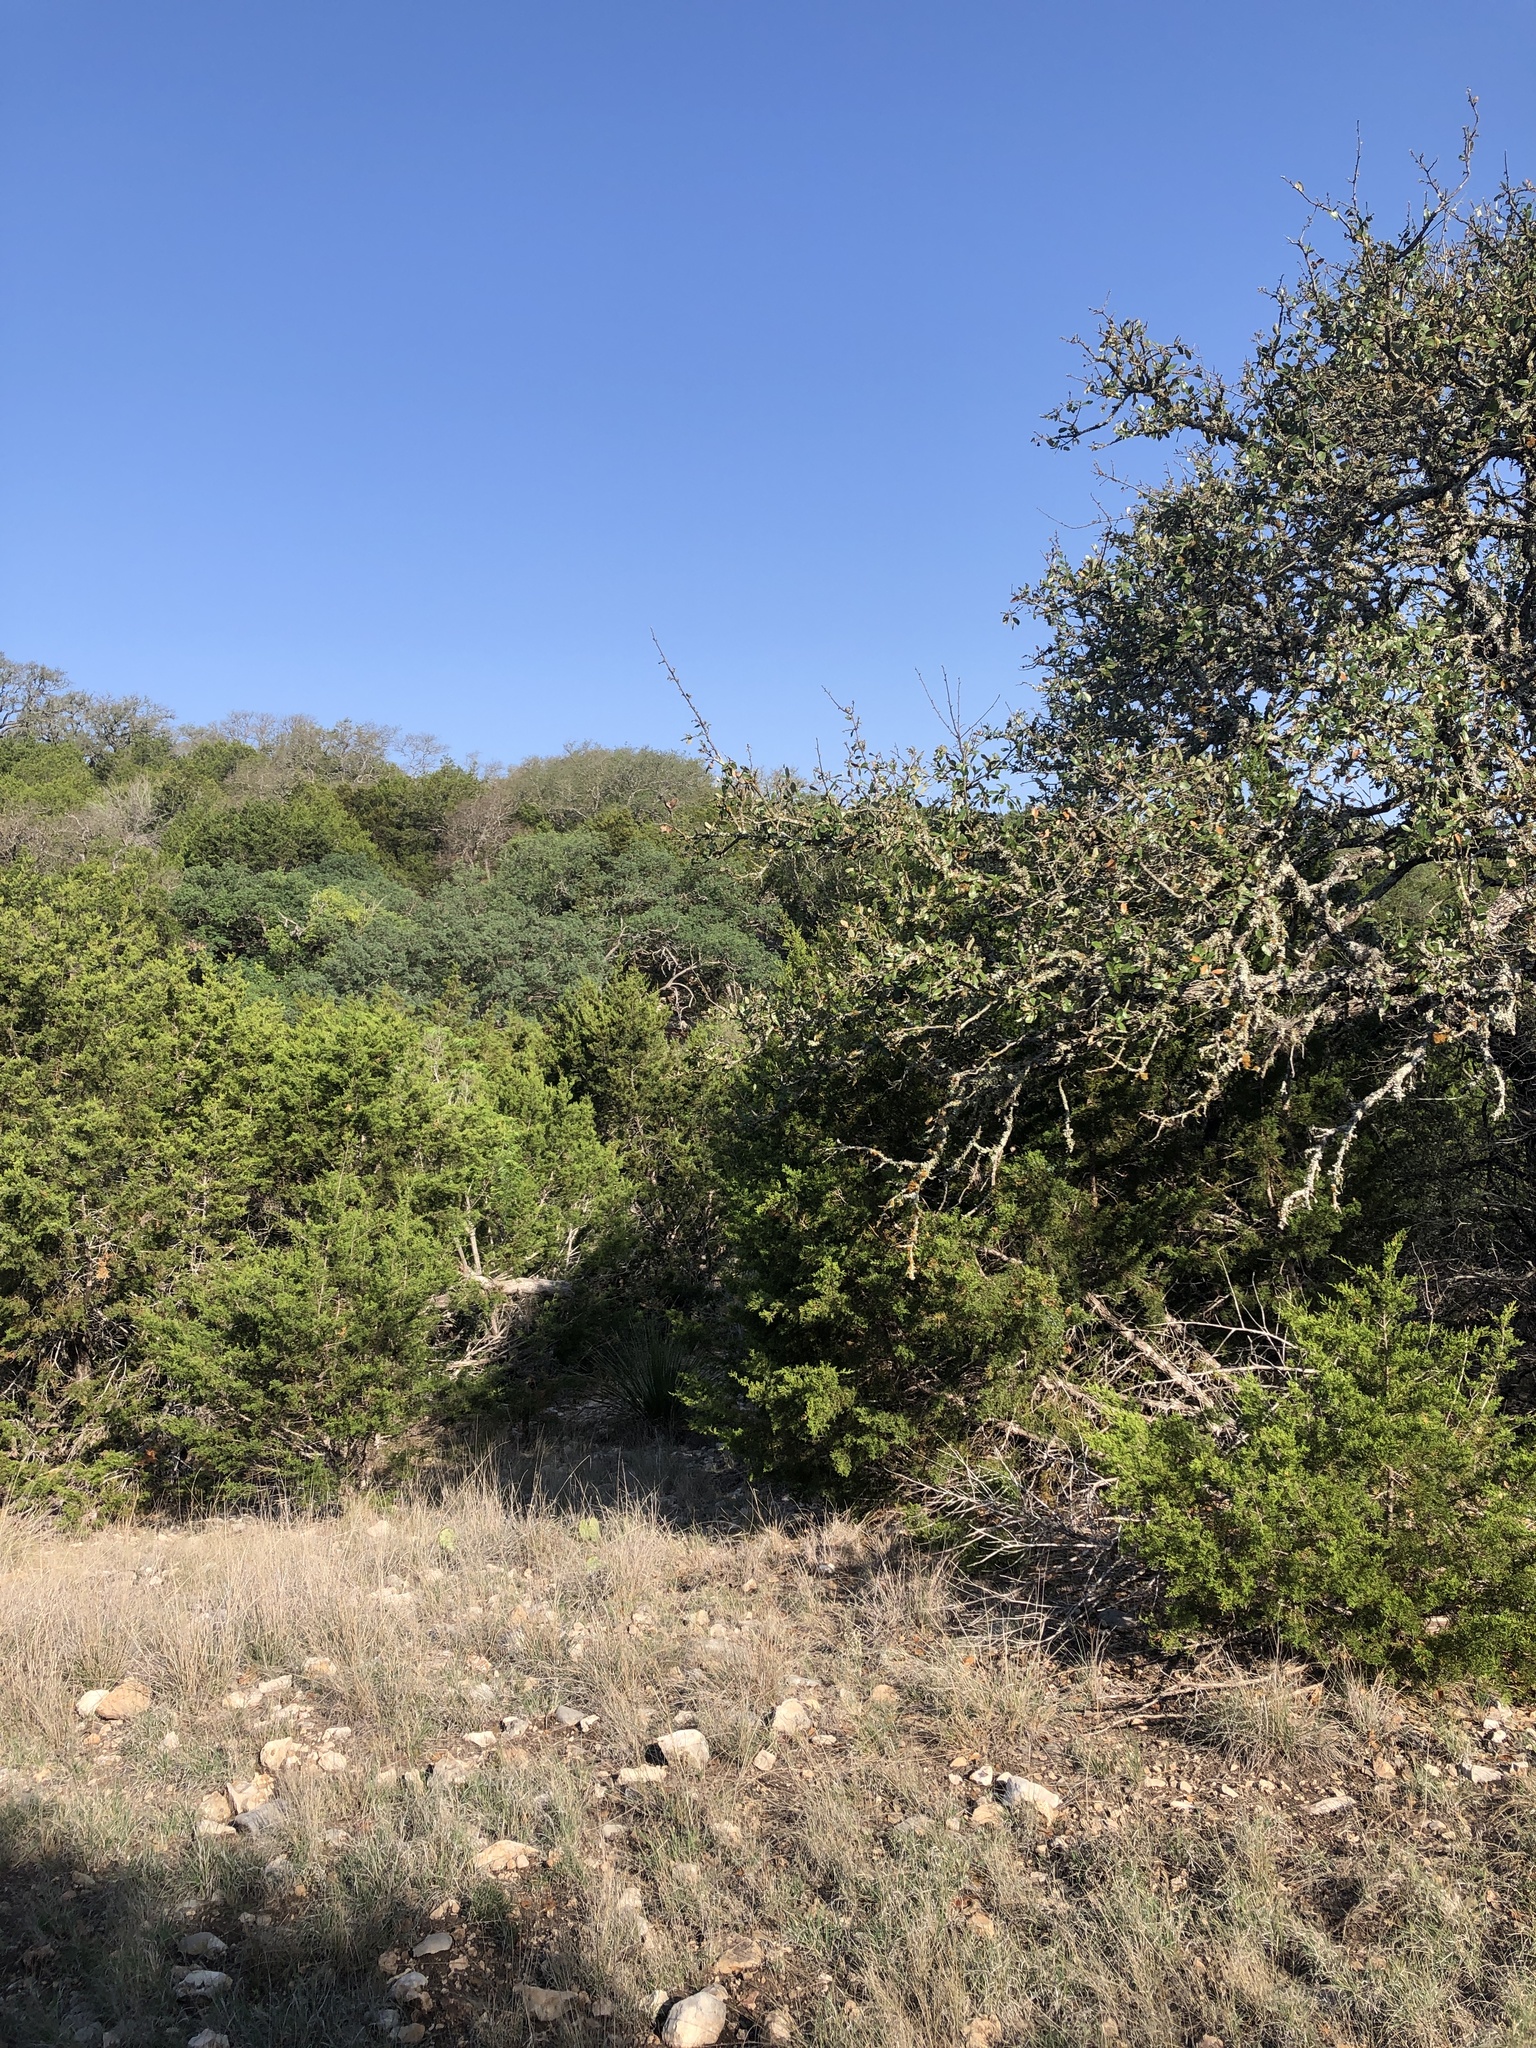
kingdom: Animalia
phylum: Chordata
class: Aves
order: Passeriformes
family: Passerellidae
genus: Arremonops
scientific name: Arremonops rufivirgatus
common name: Olive sparrow
